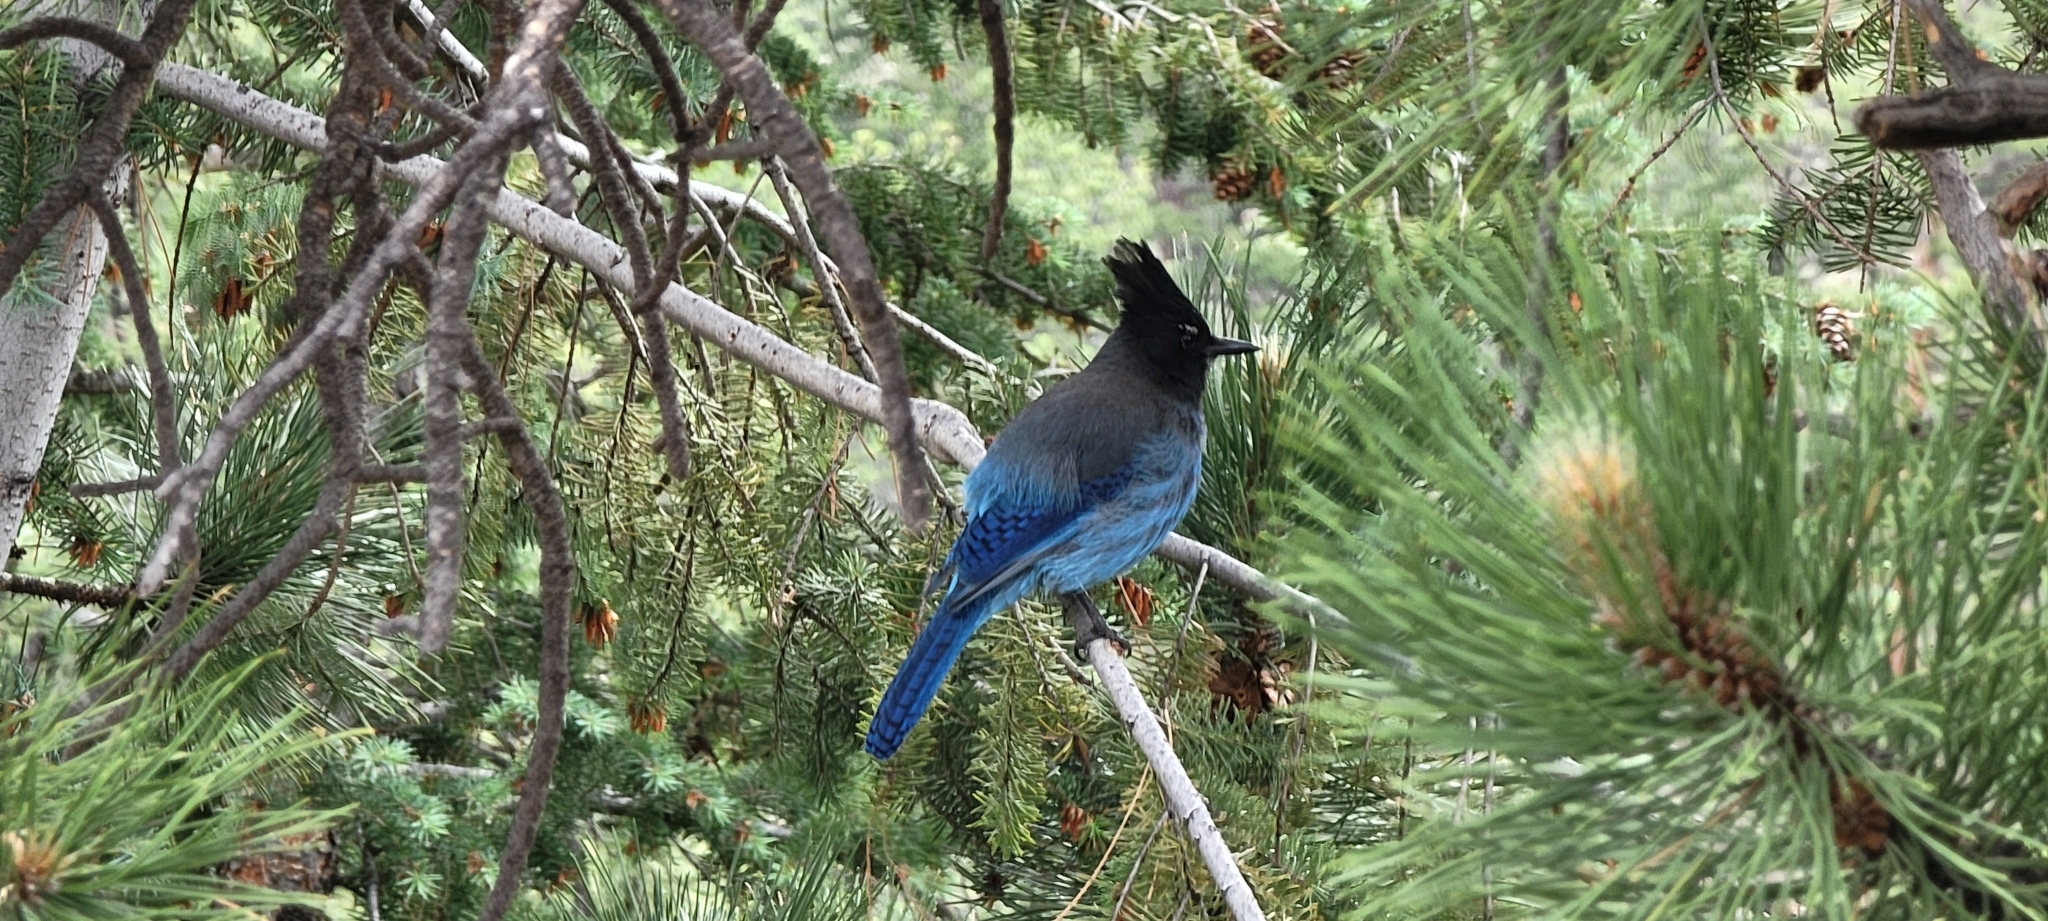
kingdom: Animalia
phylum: Chordata
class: Aves
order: Passeriformes
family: Corvidae
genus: Cyanocitta
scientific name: Cyanocitta stelleri
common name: Steller's jay
